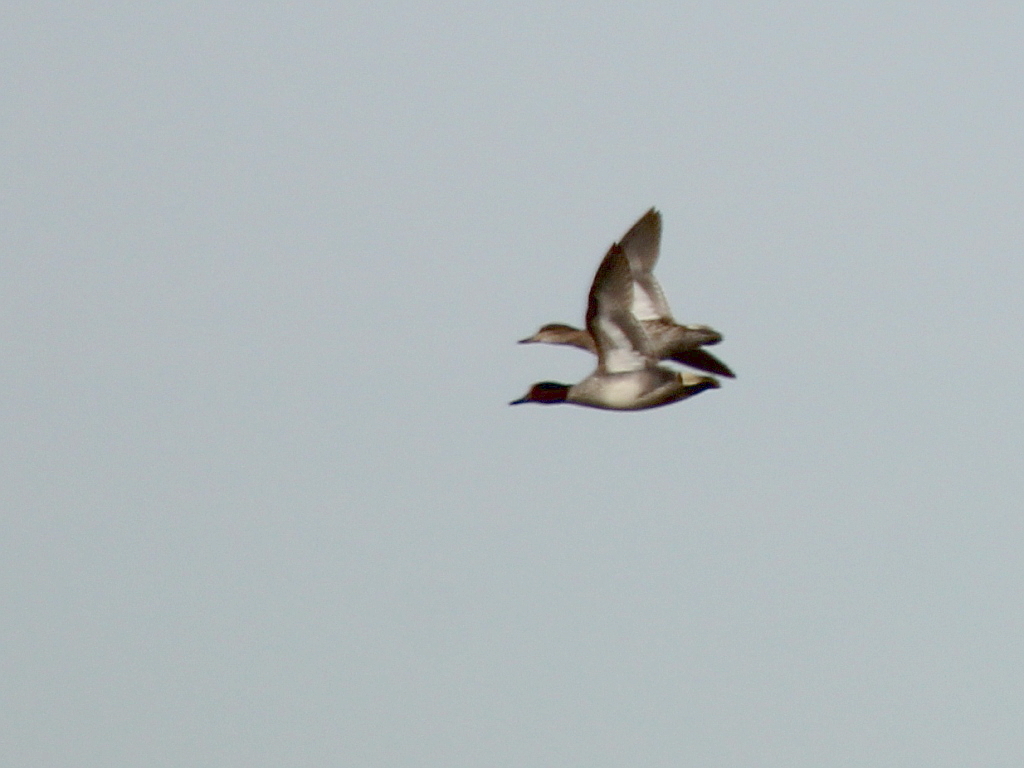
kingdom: Animalia
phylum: Chordata
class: Aves
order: Anseriformes
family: Anatidae
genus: Anas
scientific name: Anas crecca
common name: Eurasian teal
